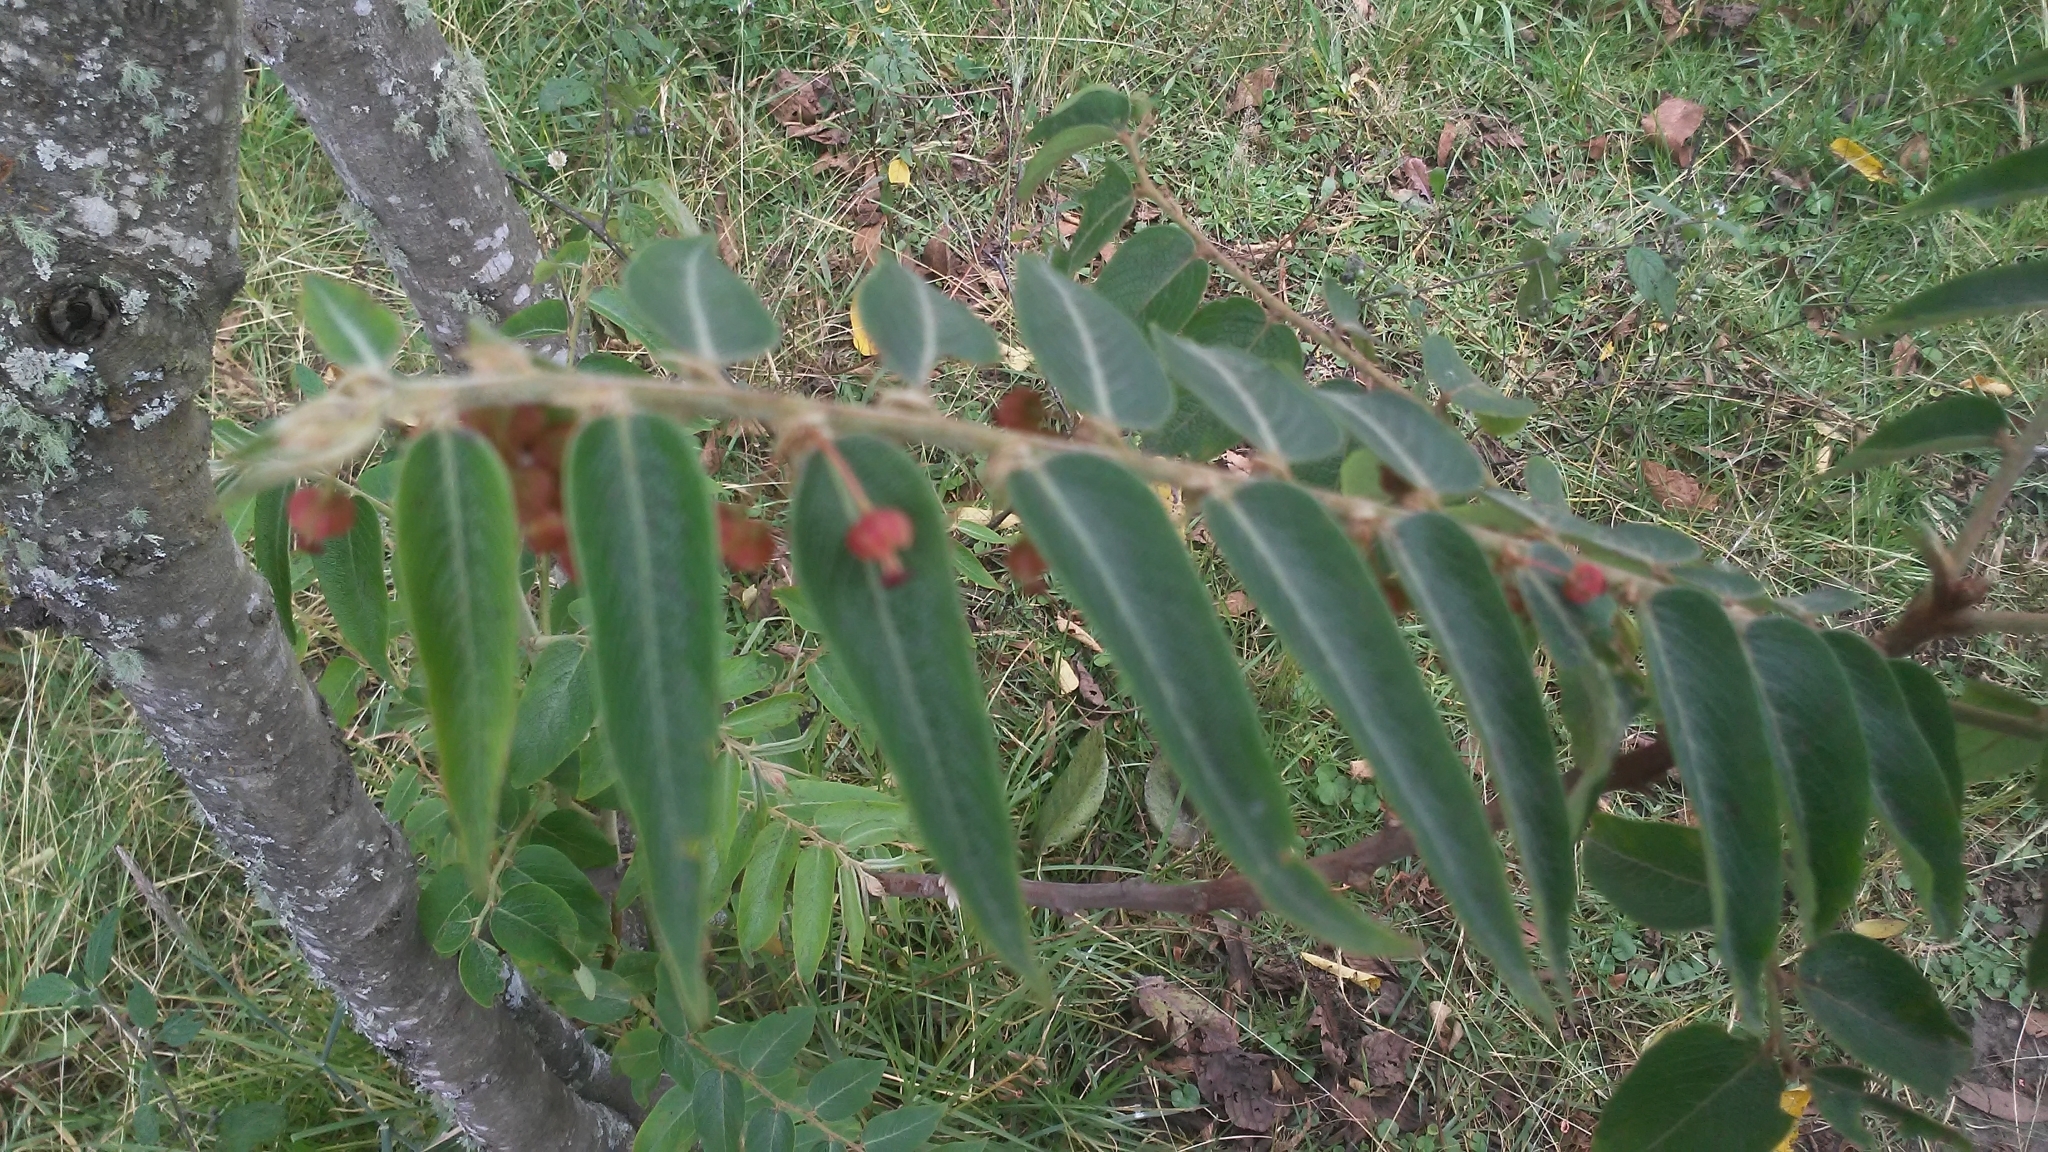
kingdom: Plantae
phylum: Tracheophyta
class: Magnoliopsida
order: Malpighiales
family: Phyllanthaceae
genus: Phyllanthus
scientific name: Phyllanthus salviifolius
